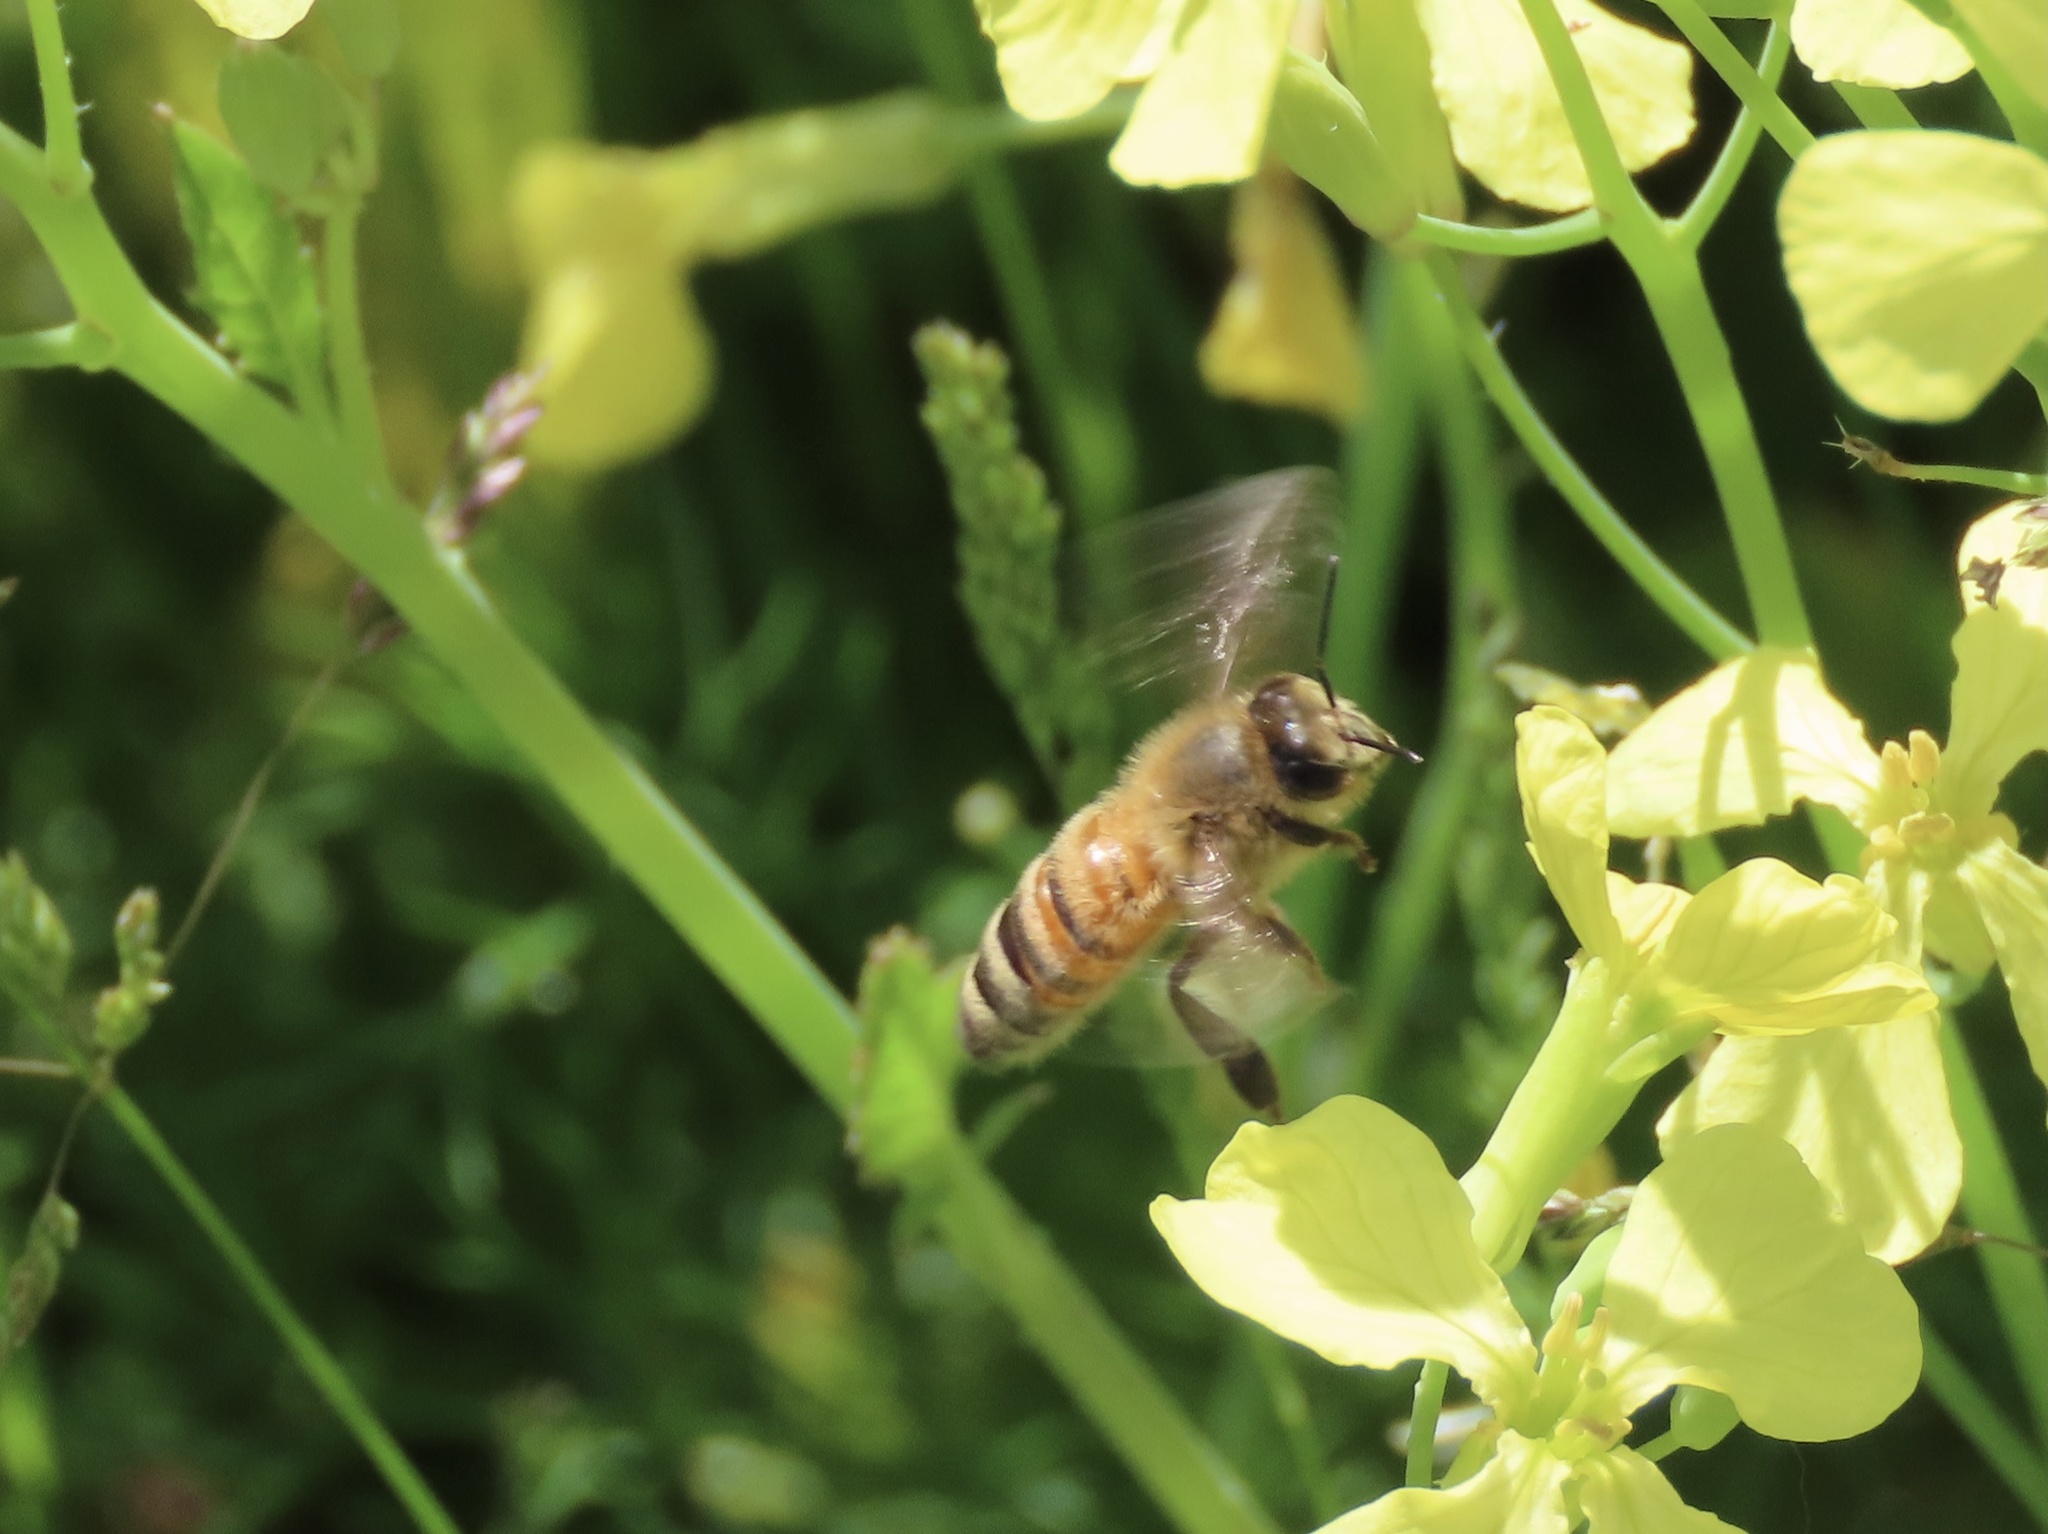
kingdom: Animalia
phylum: Arthropoda
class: Insecta
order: Hymenoptera
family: Apidae
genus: Apis
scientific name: Apis mellifera
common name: Honey bee
